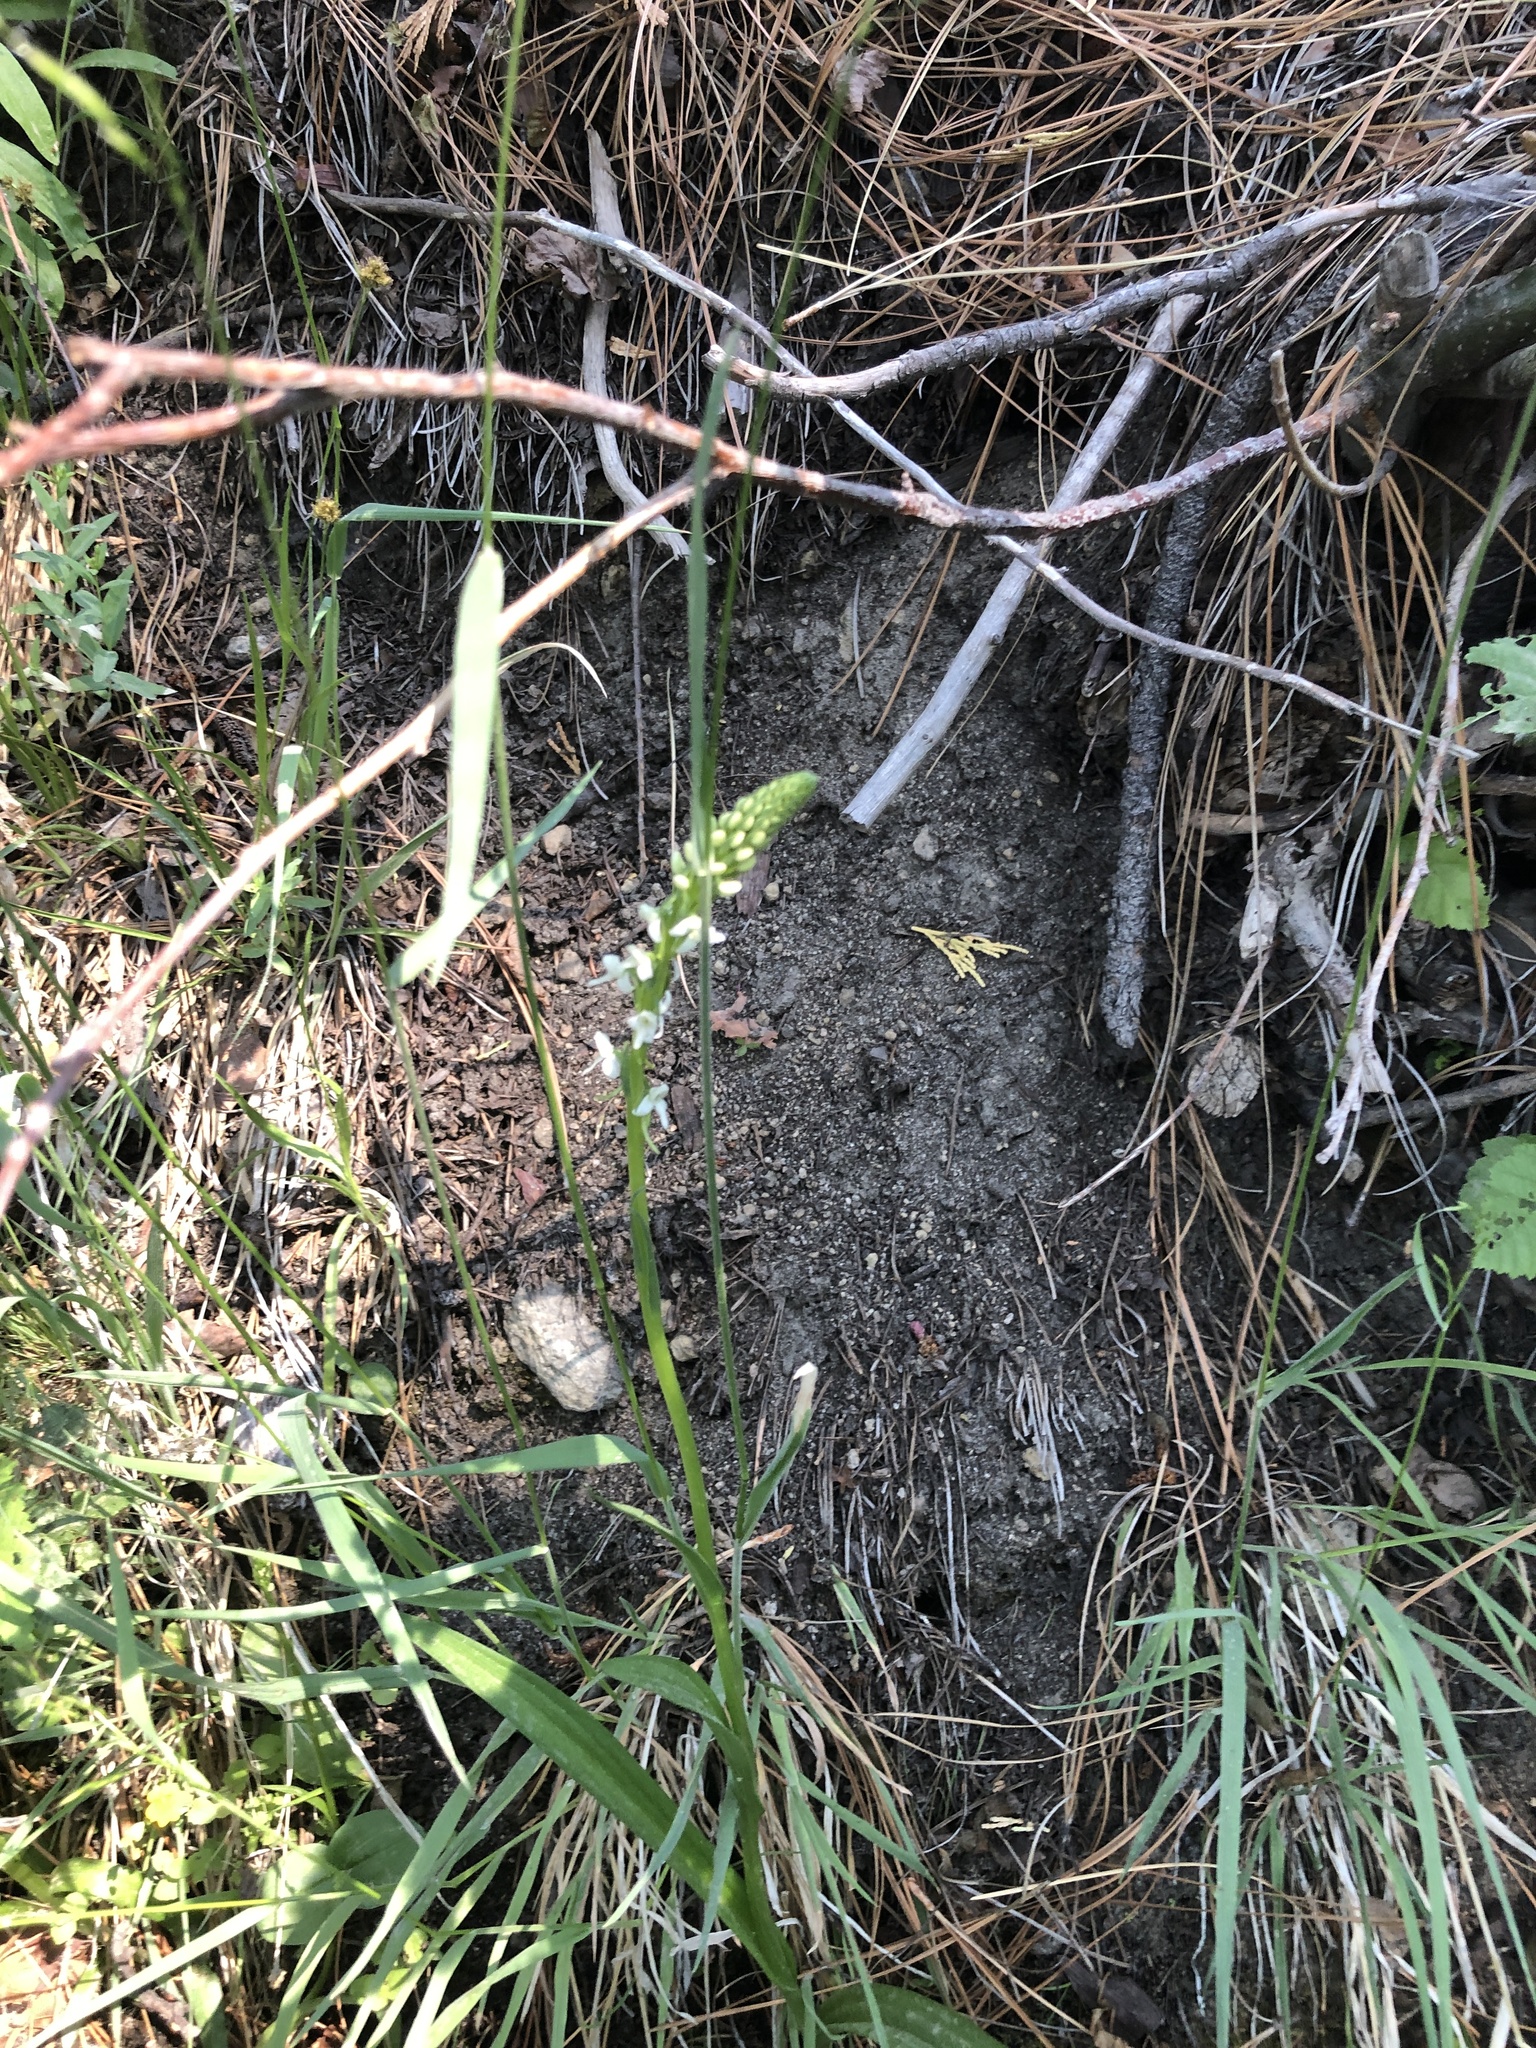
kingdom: Plantae
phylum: Tracheophyta
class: Liliopsida
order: Asparagales
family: Orchidaceae
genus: Platanthera
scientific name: Platanthera dilatata
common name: Bog candles
